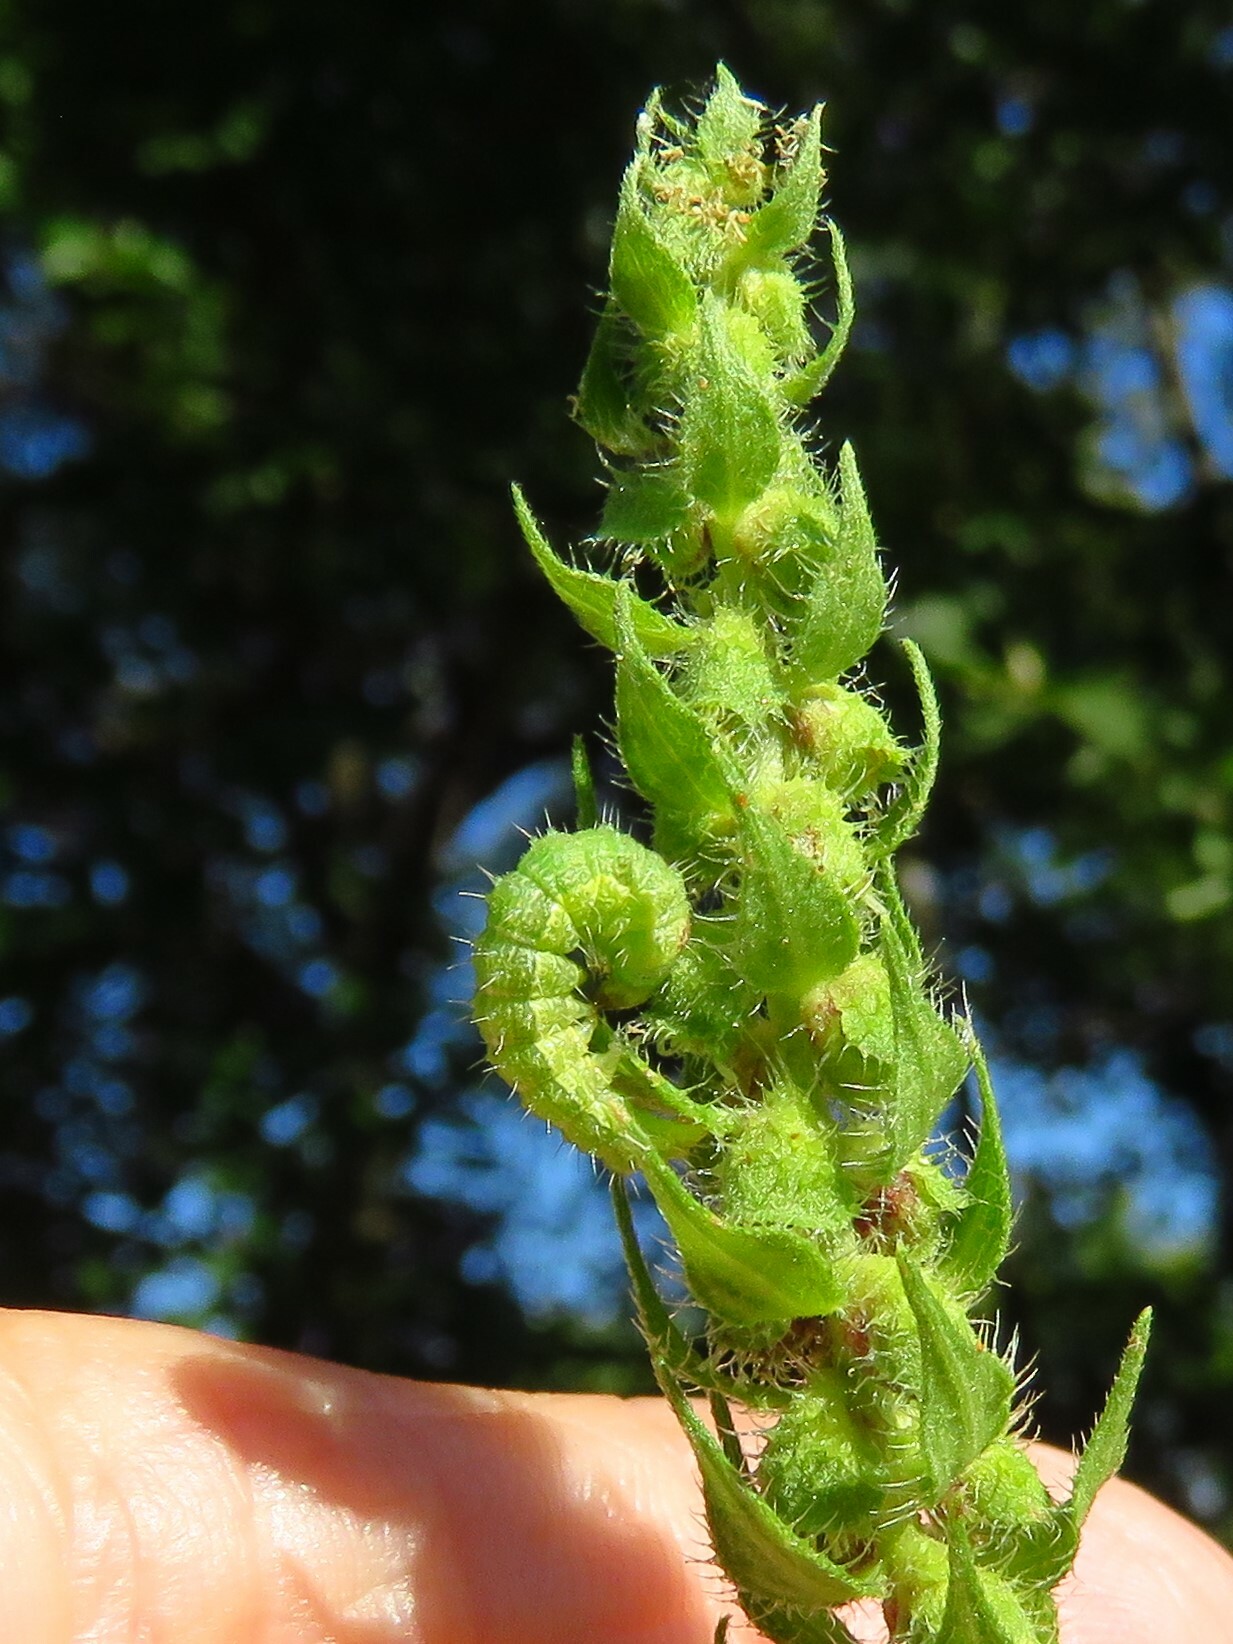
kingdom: Animalia
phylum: Arthropoda
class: Insecta
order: Lepidoptera
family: Noctuidae
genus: Schinia
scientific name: Schinia gracilenta
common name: Slender flower moth
